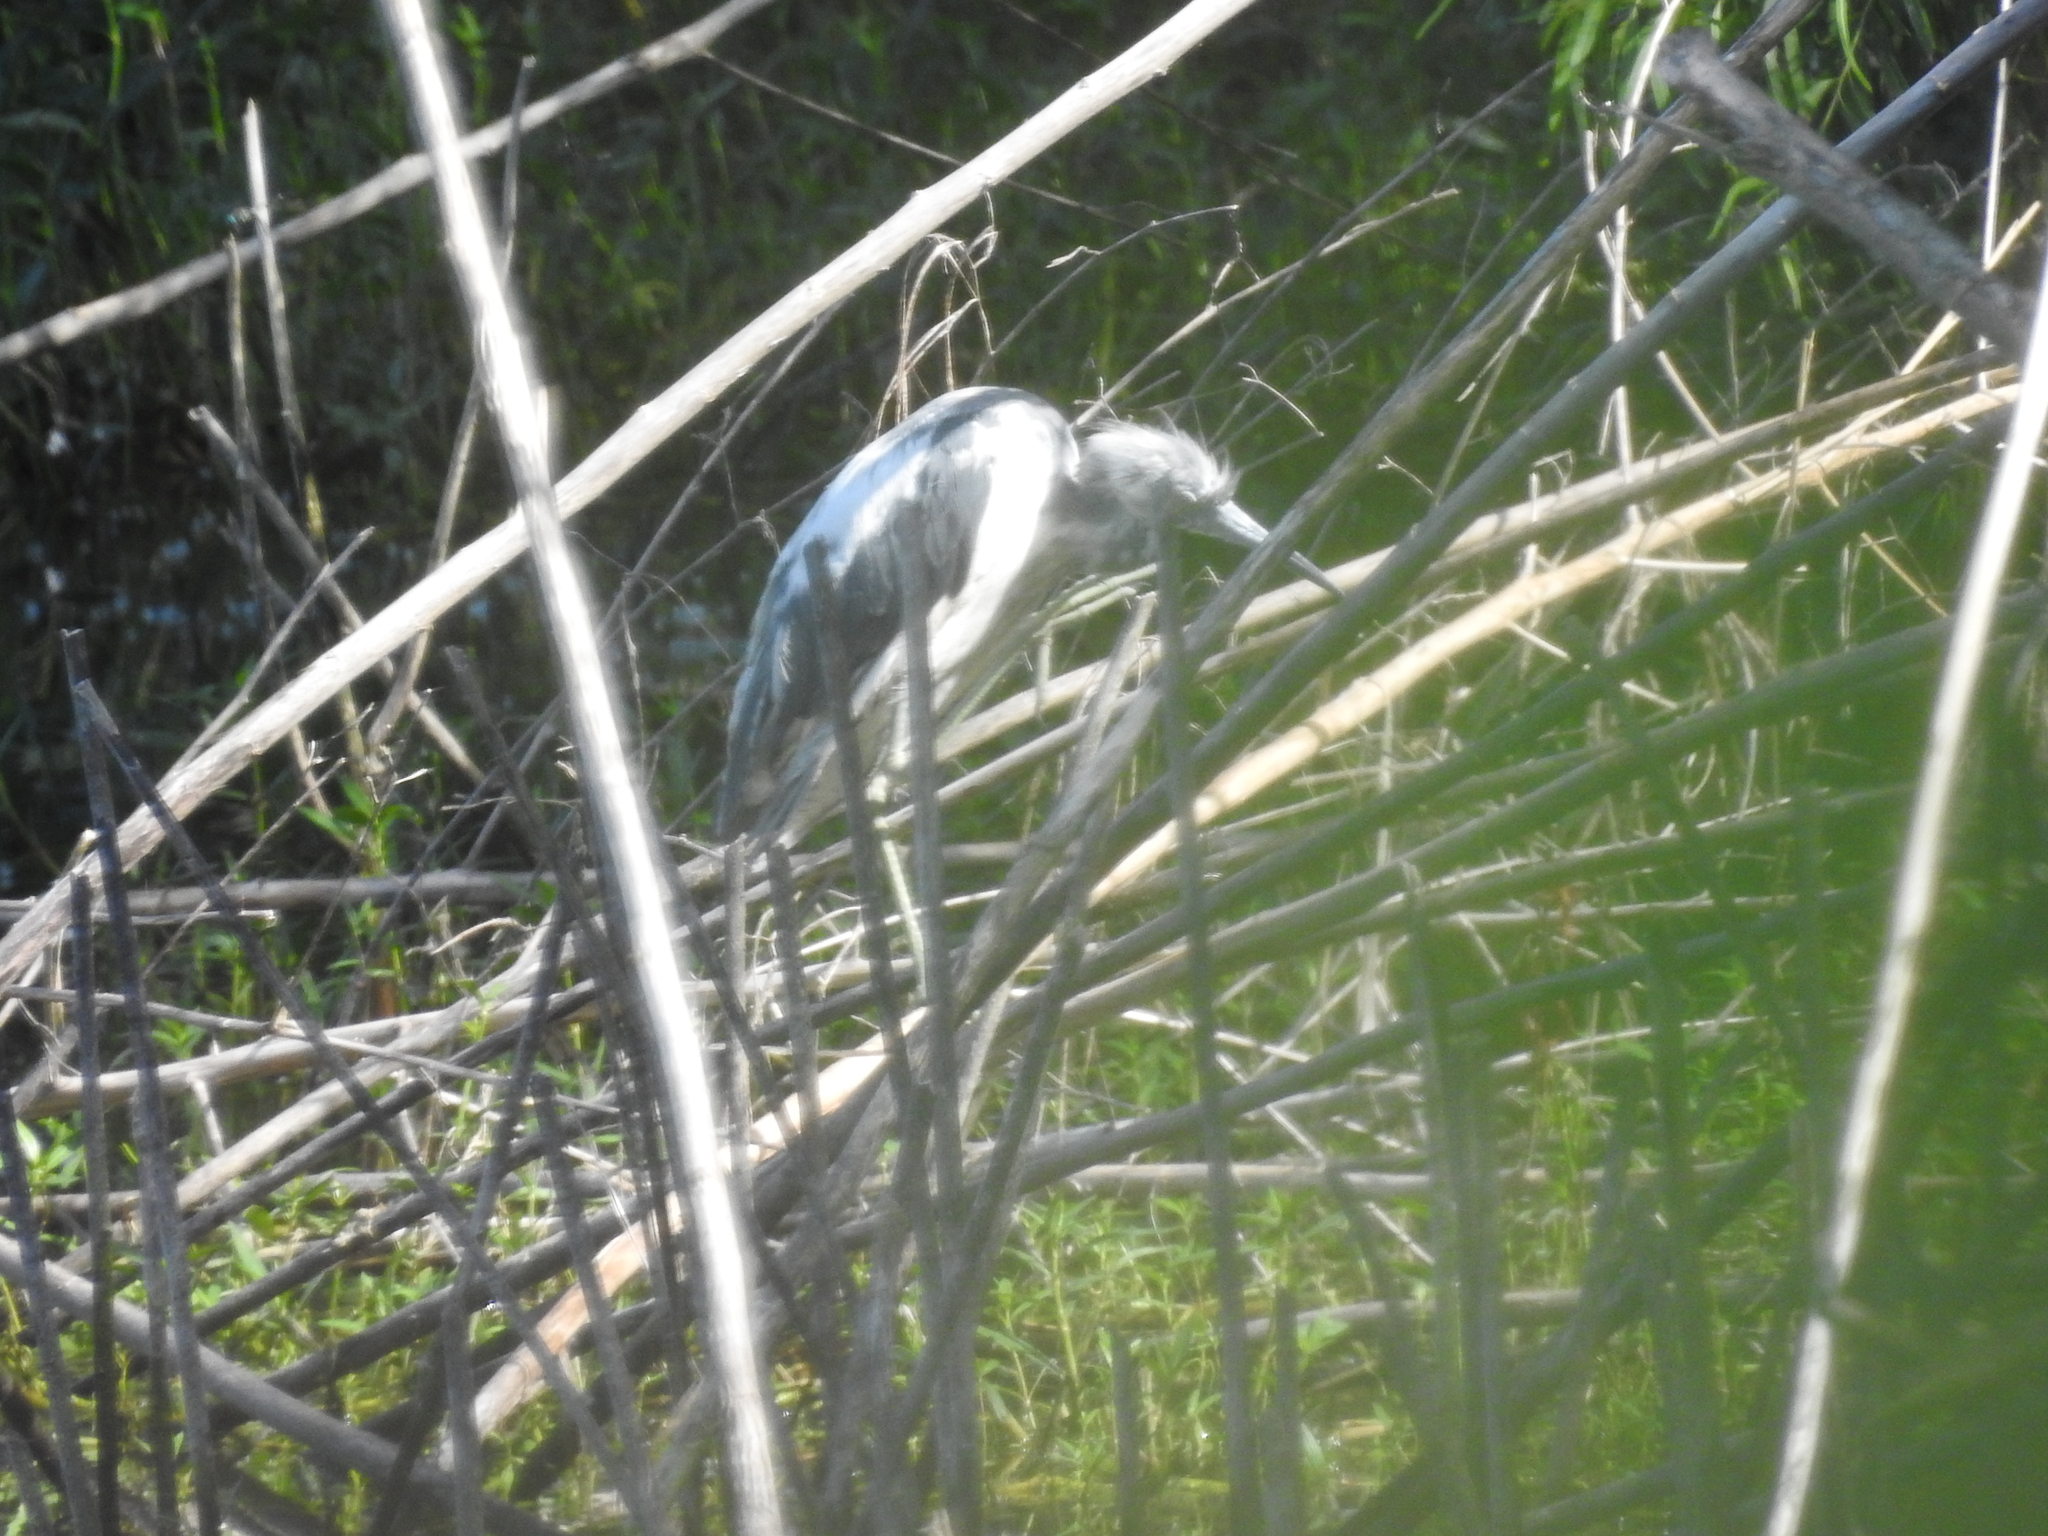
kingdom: Animalia
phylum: Chordata
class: Aves
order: Pelecaniformes
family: Ardeidae
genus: Egretta
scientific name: Egretta caerulea
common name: Little blue heron
